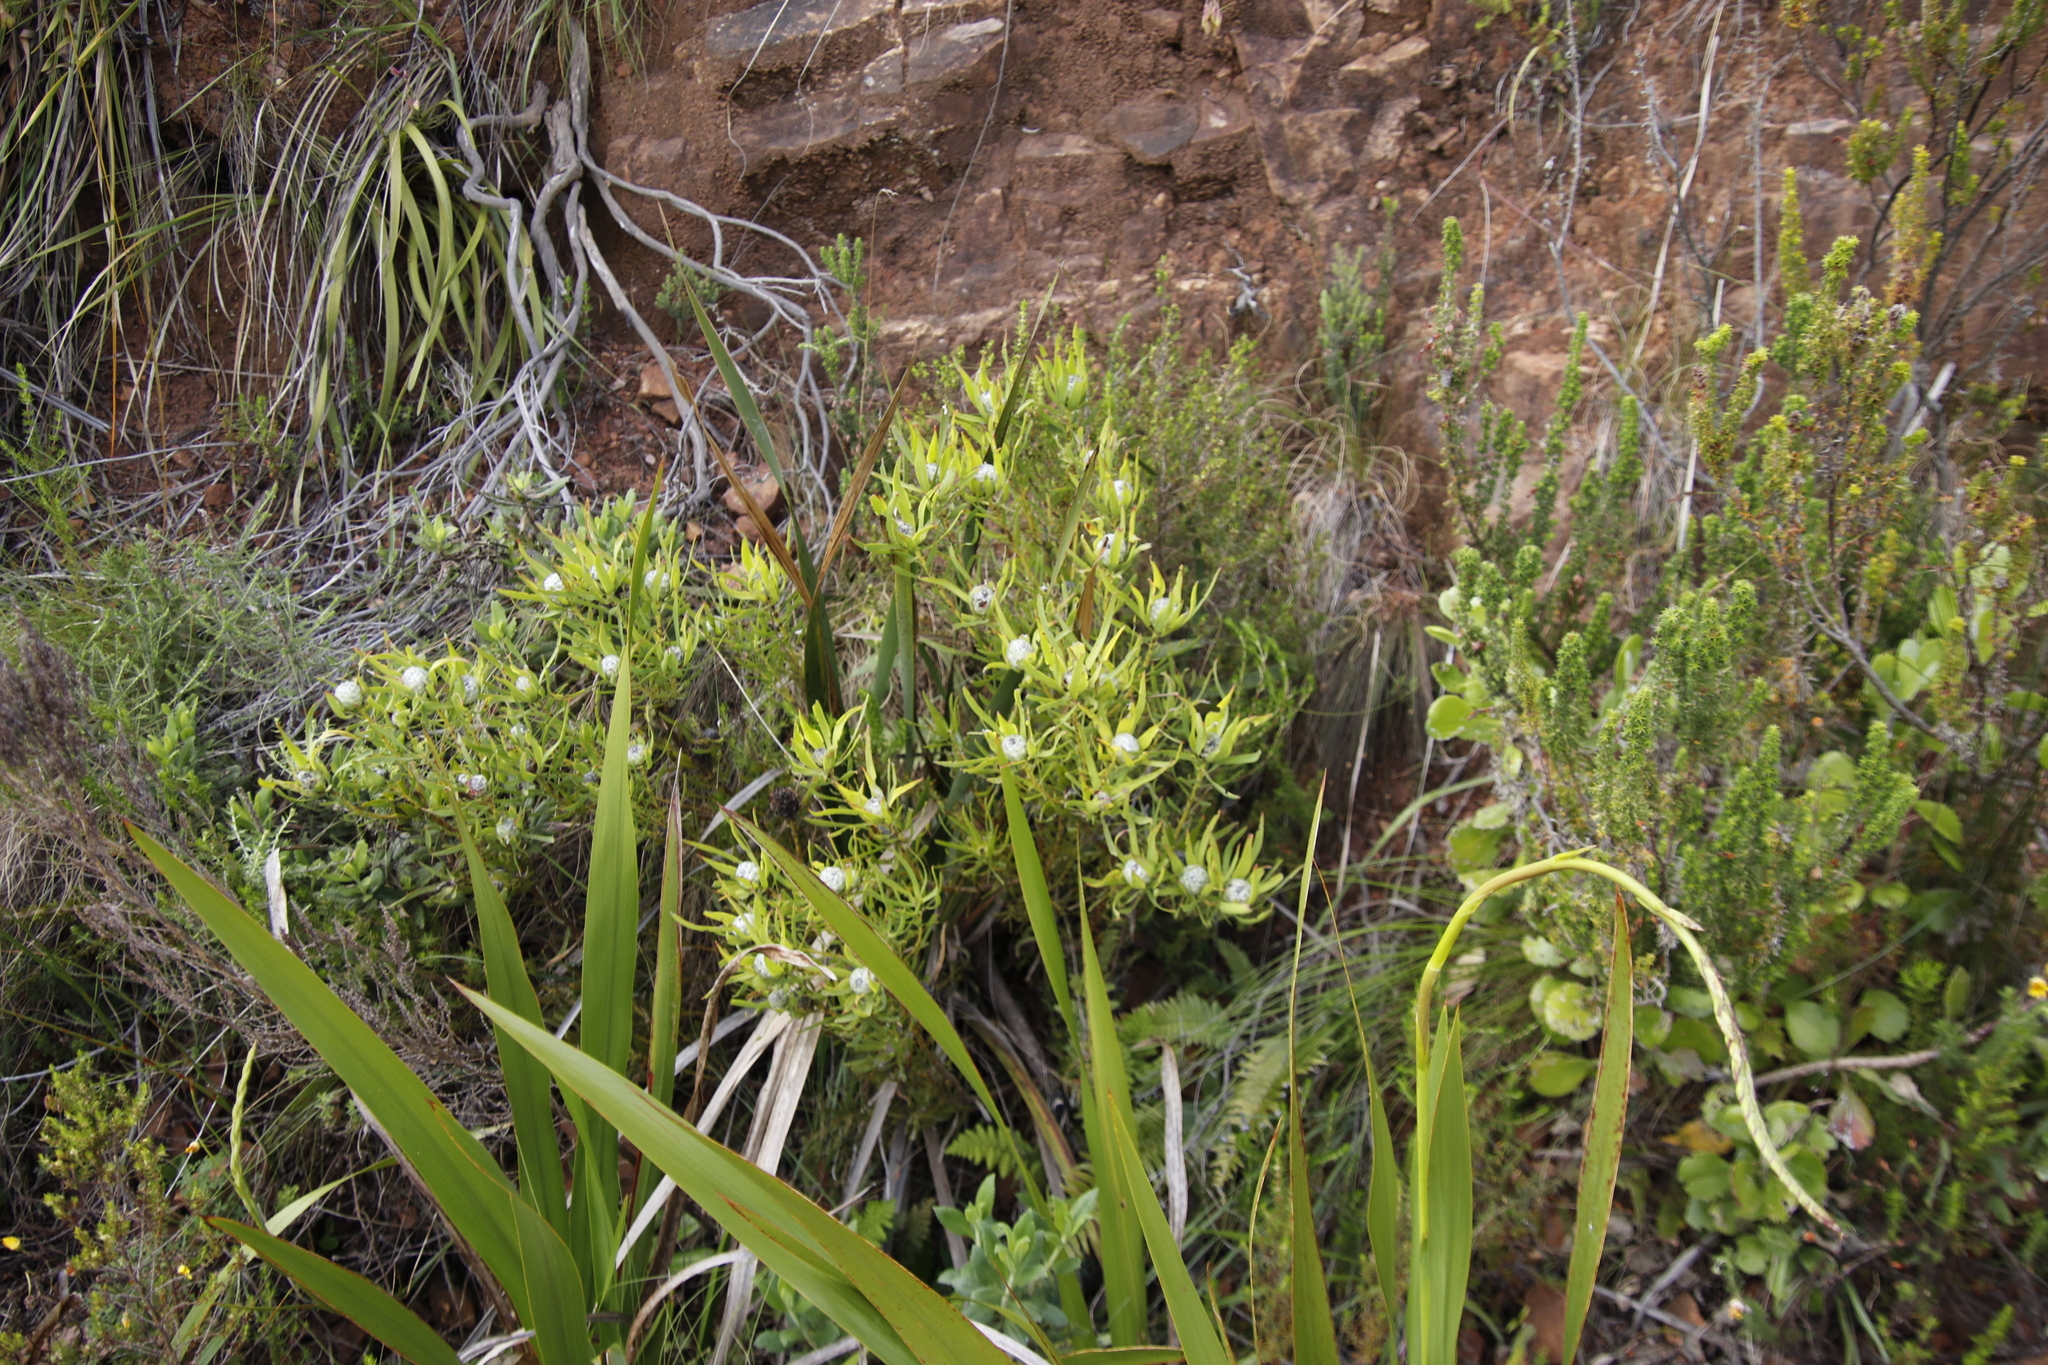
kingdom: Plantae
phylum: Tracheophyta
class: Magnoliopsida
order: Proteales
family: Proteaceae
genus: Leucadendron
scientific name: Leucadendron salignum
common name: Common sunshine conebush
